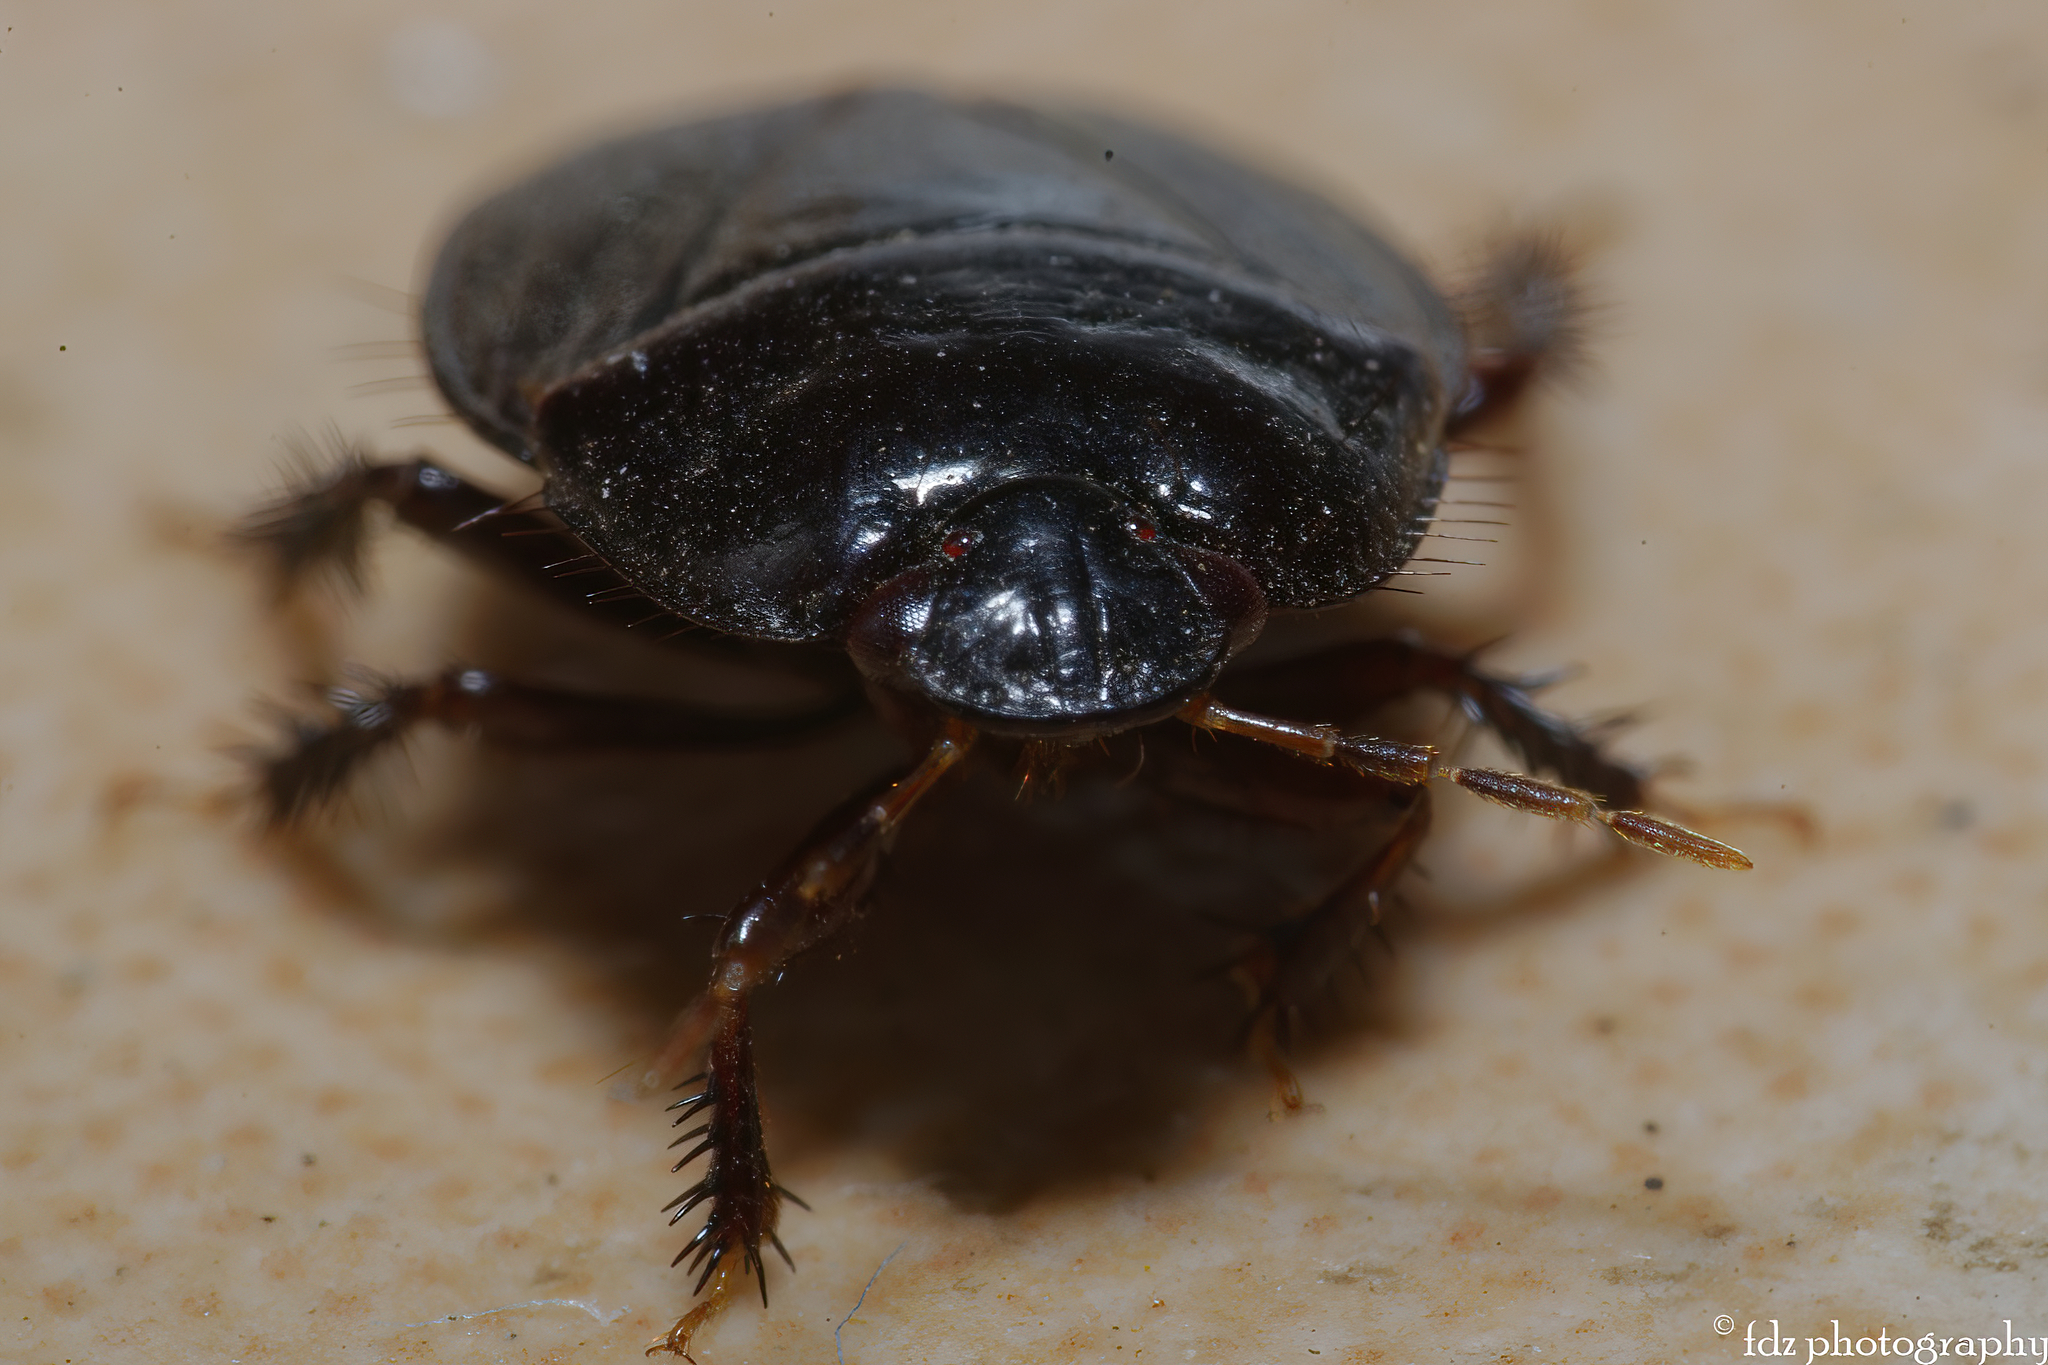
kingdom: Animalia
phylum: Arthropoda
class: Insecta
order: Hemiptera
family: Cydnidae
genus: Macroscytus
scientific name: Macroscytus brunneus
